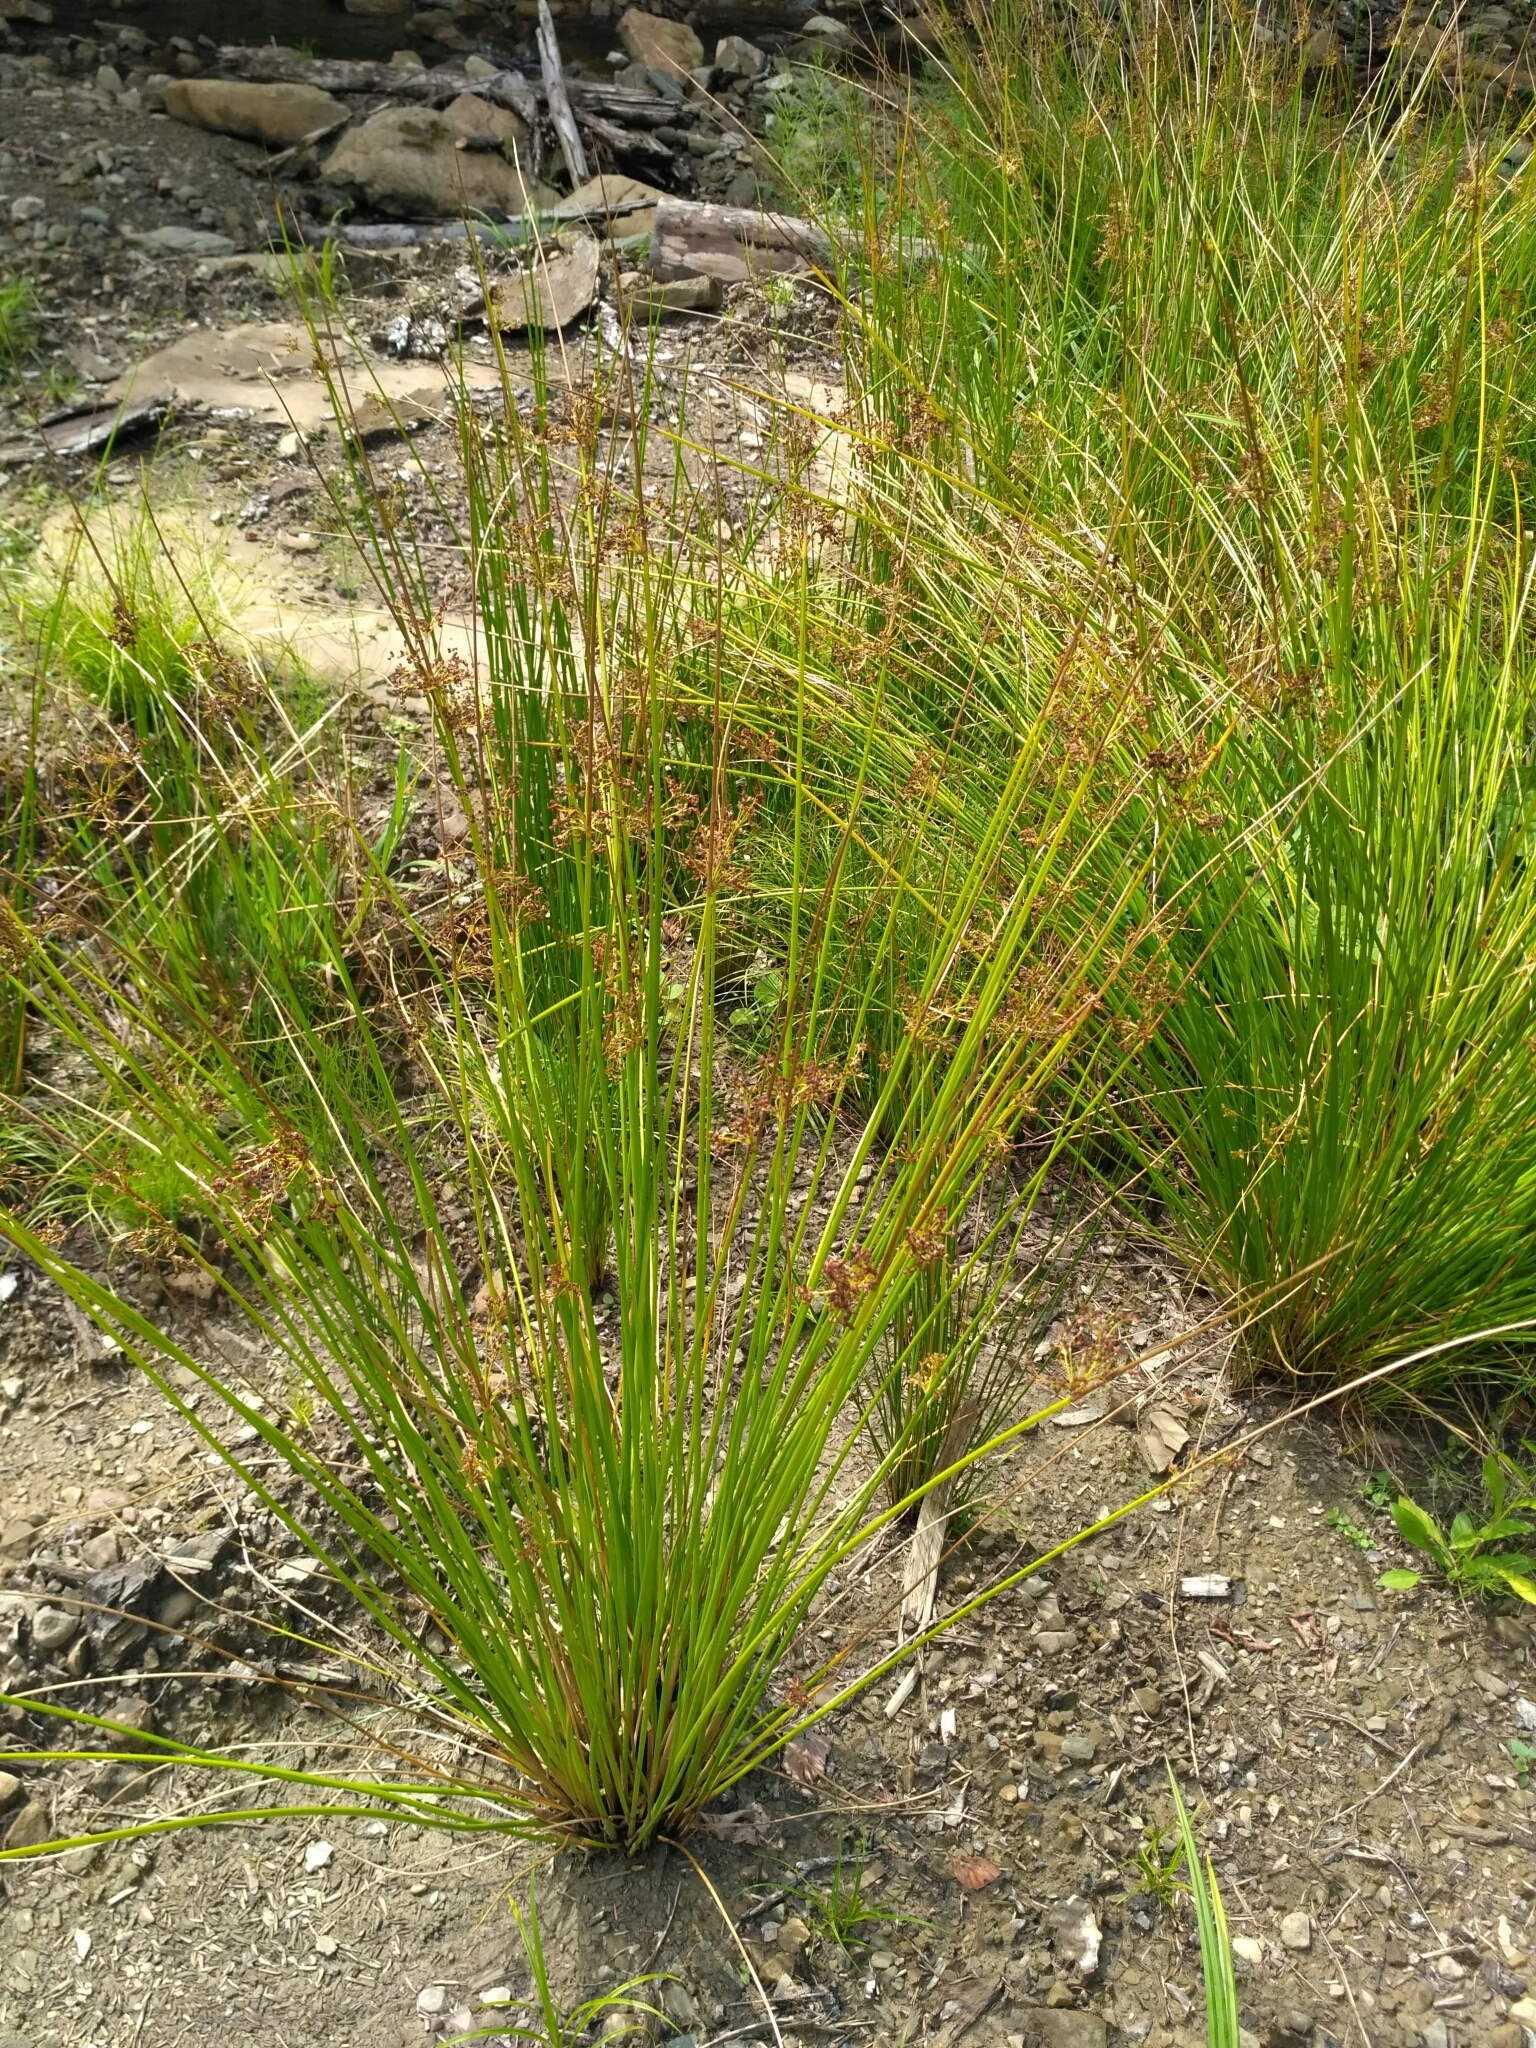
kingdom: Plantae
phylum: Tracheophyta
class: Liliopsida
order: Poales
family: Juncaceae
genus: Juncus
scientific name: Juncus effusus
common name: Soft rush
